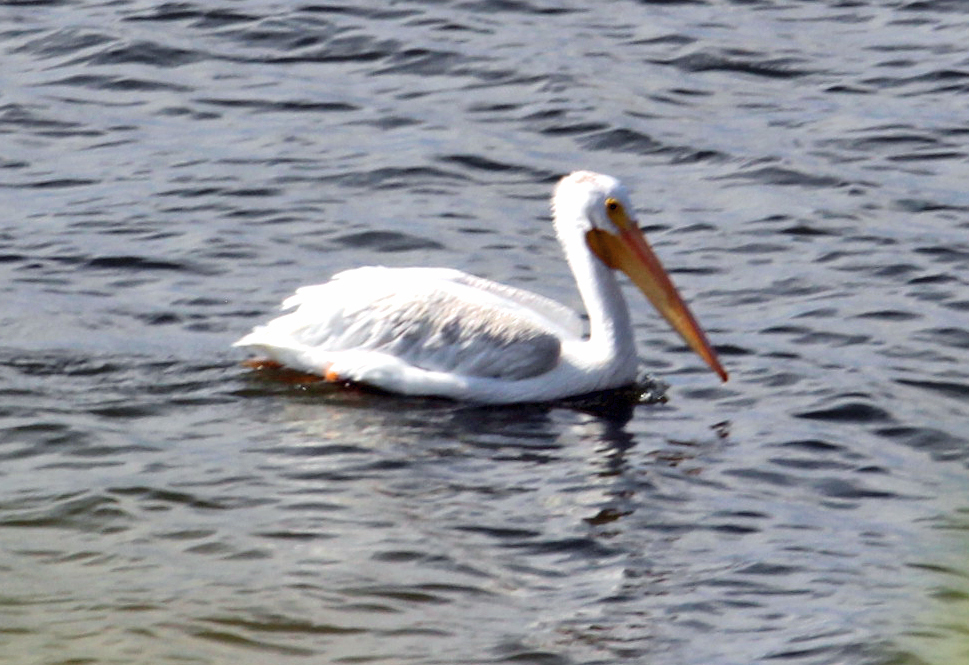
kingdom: Animalia
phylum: Chordata
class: Aves
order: Pelecaniformes
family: Pelecanidae
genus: Pelecanus
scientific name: Pelecanus erythrorhynchos
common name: American white pelican
